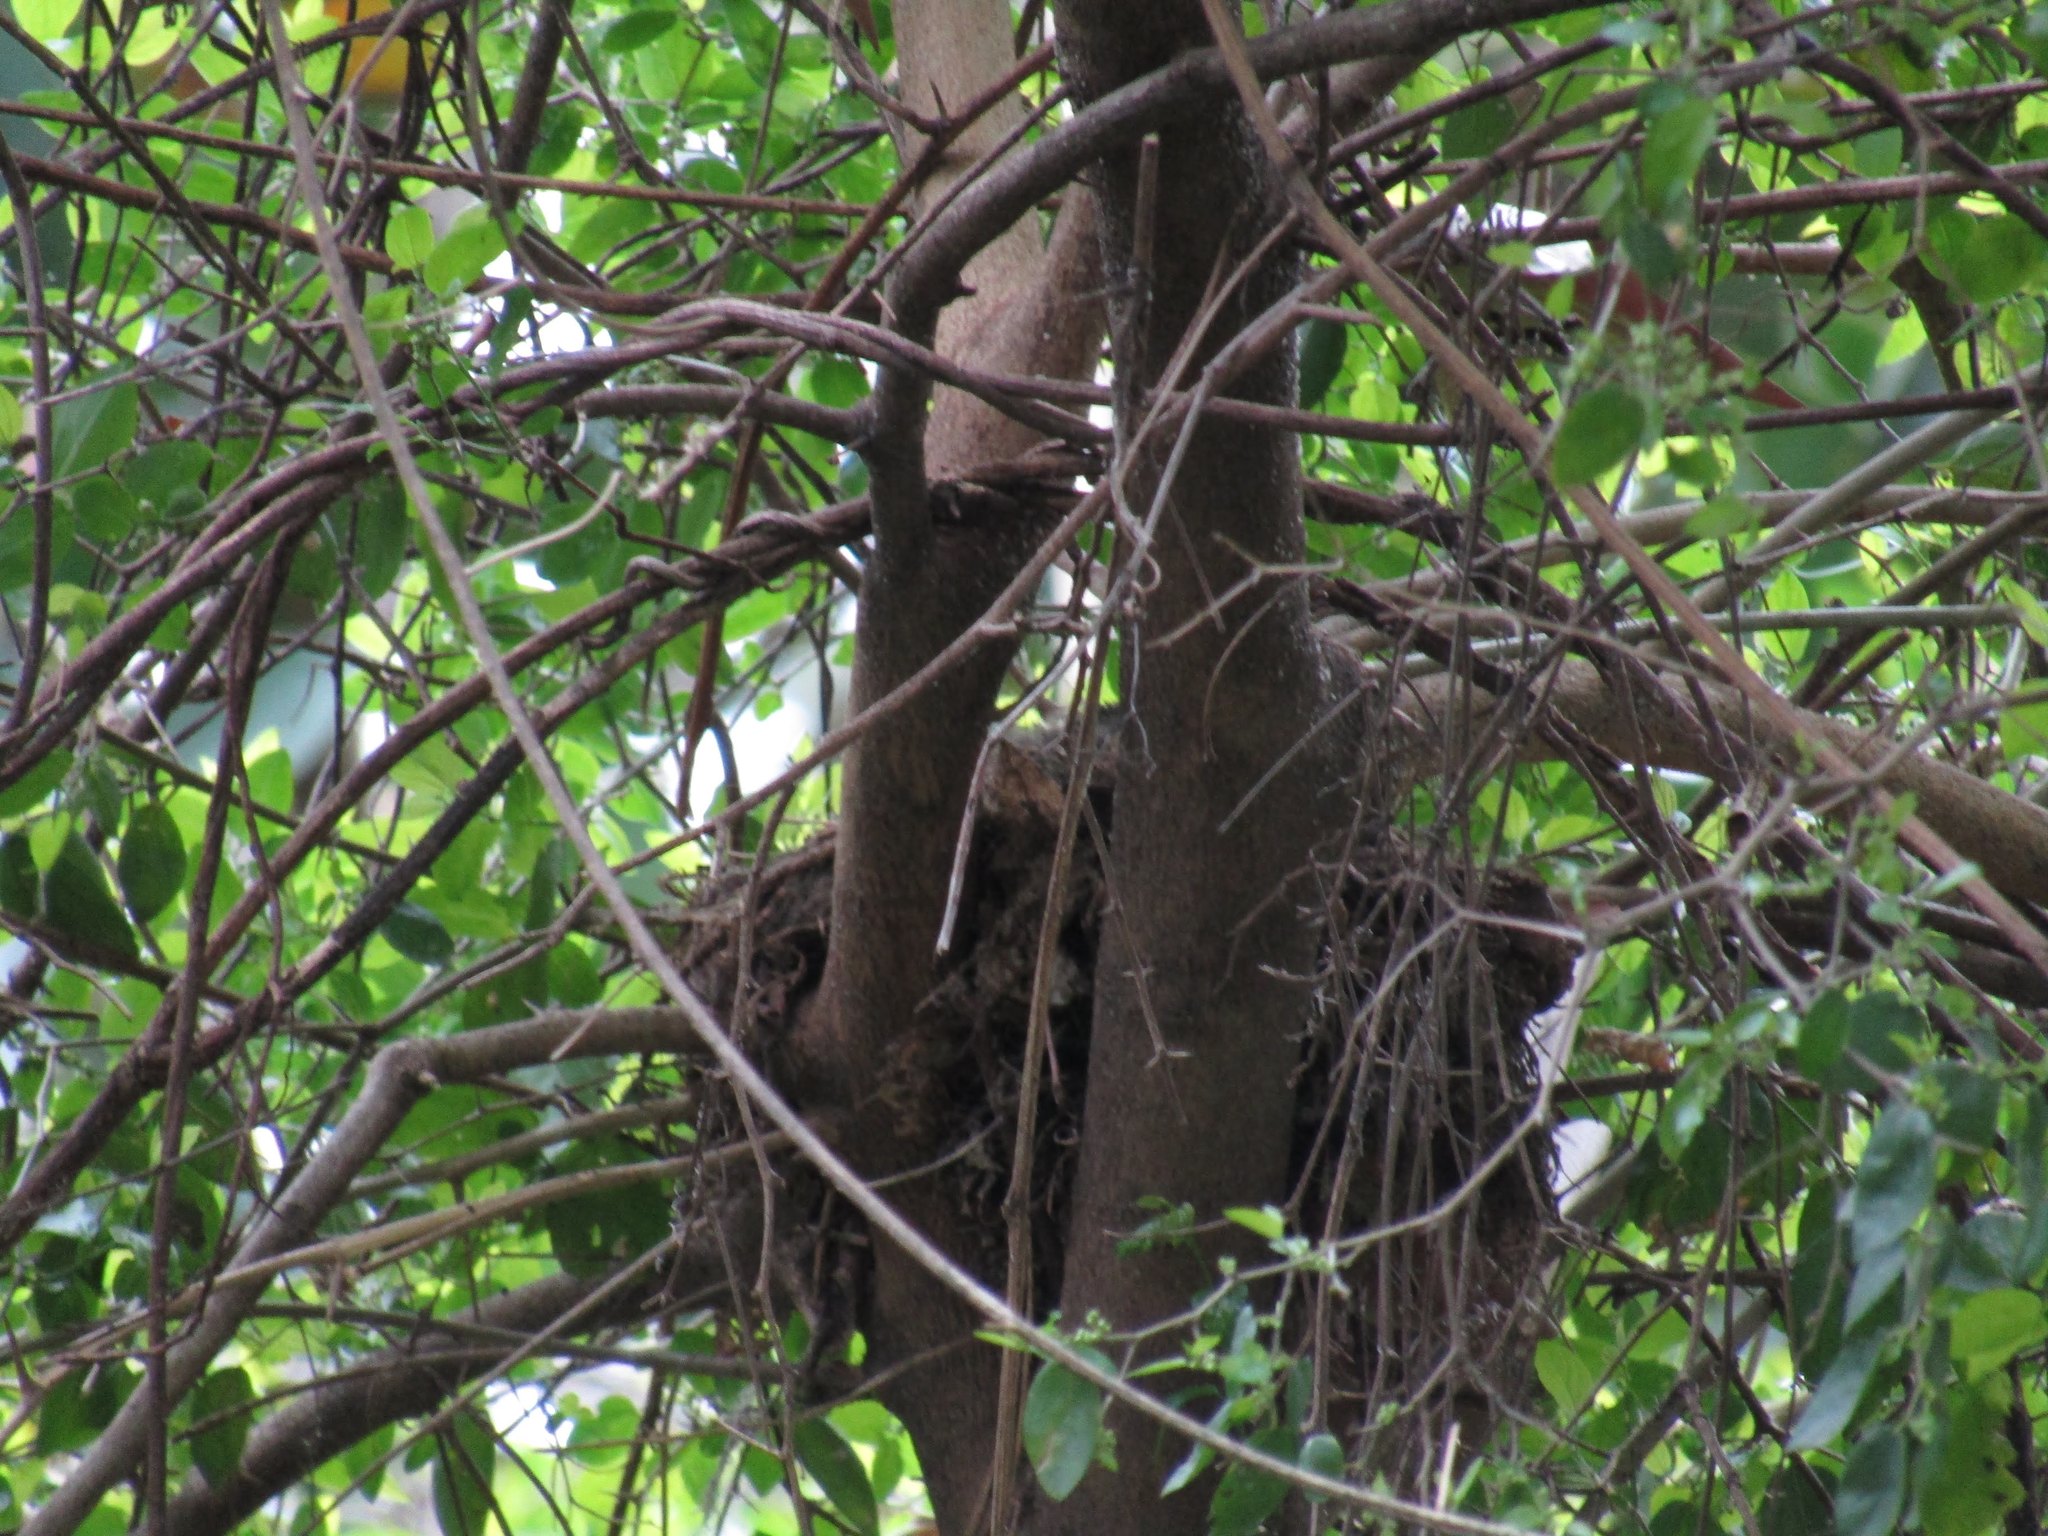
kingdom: Animalia
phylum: Chordata
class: Aves
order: Passeriformes
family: Turdidae
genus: Turdus
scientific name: Turdus rufiventris
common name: Rufous-bellied thrush
